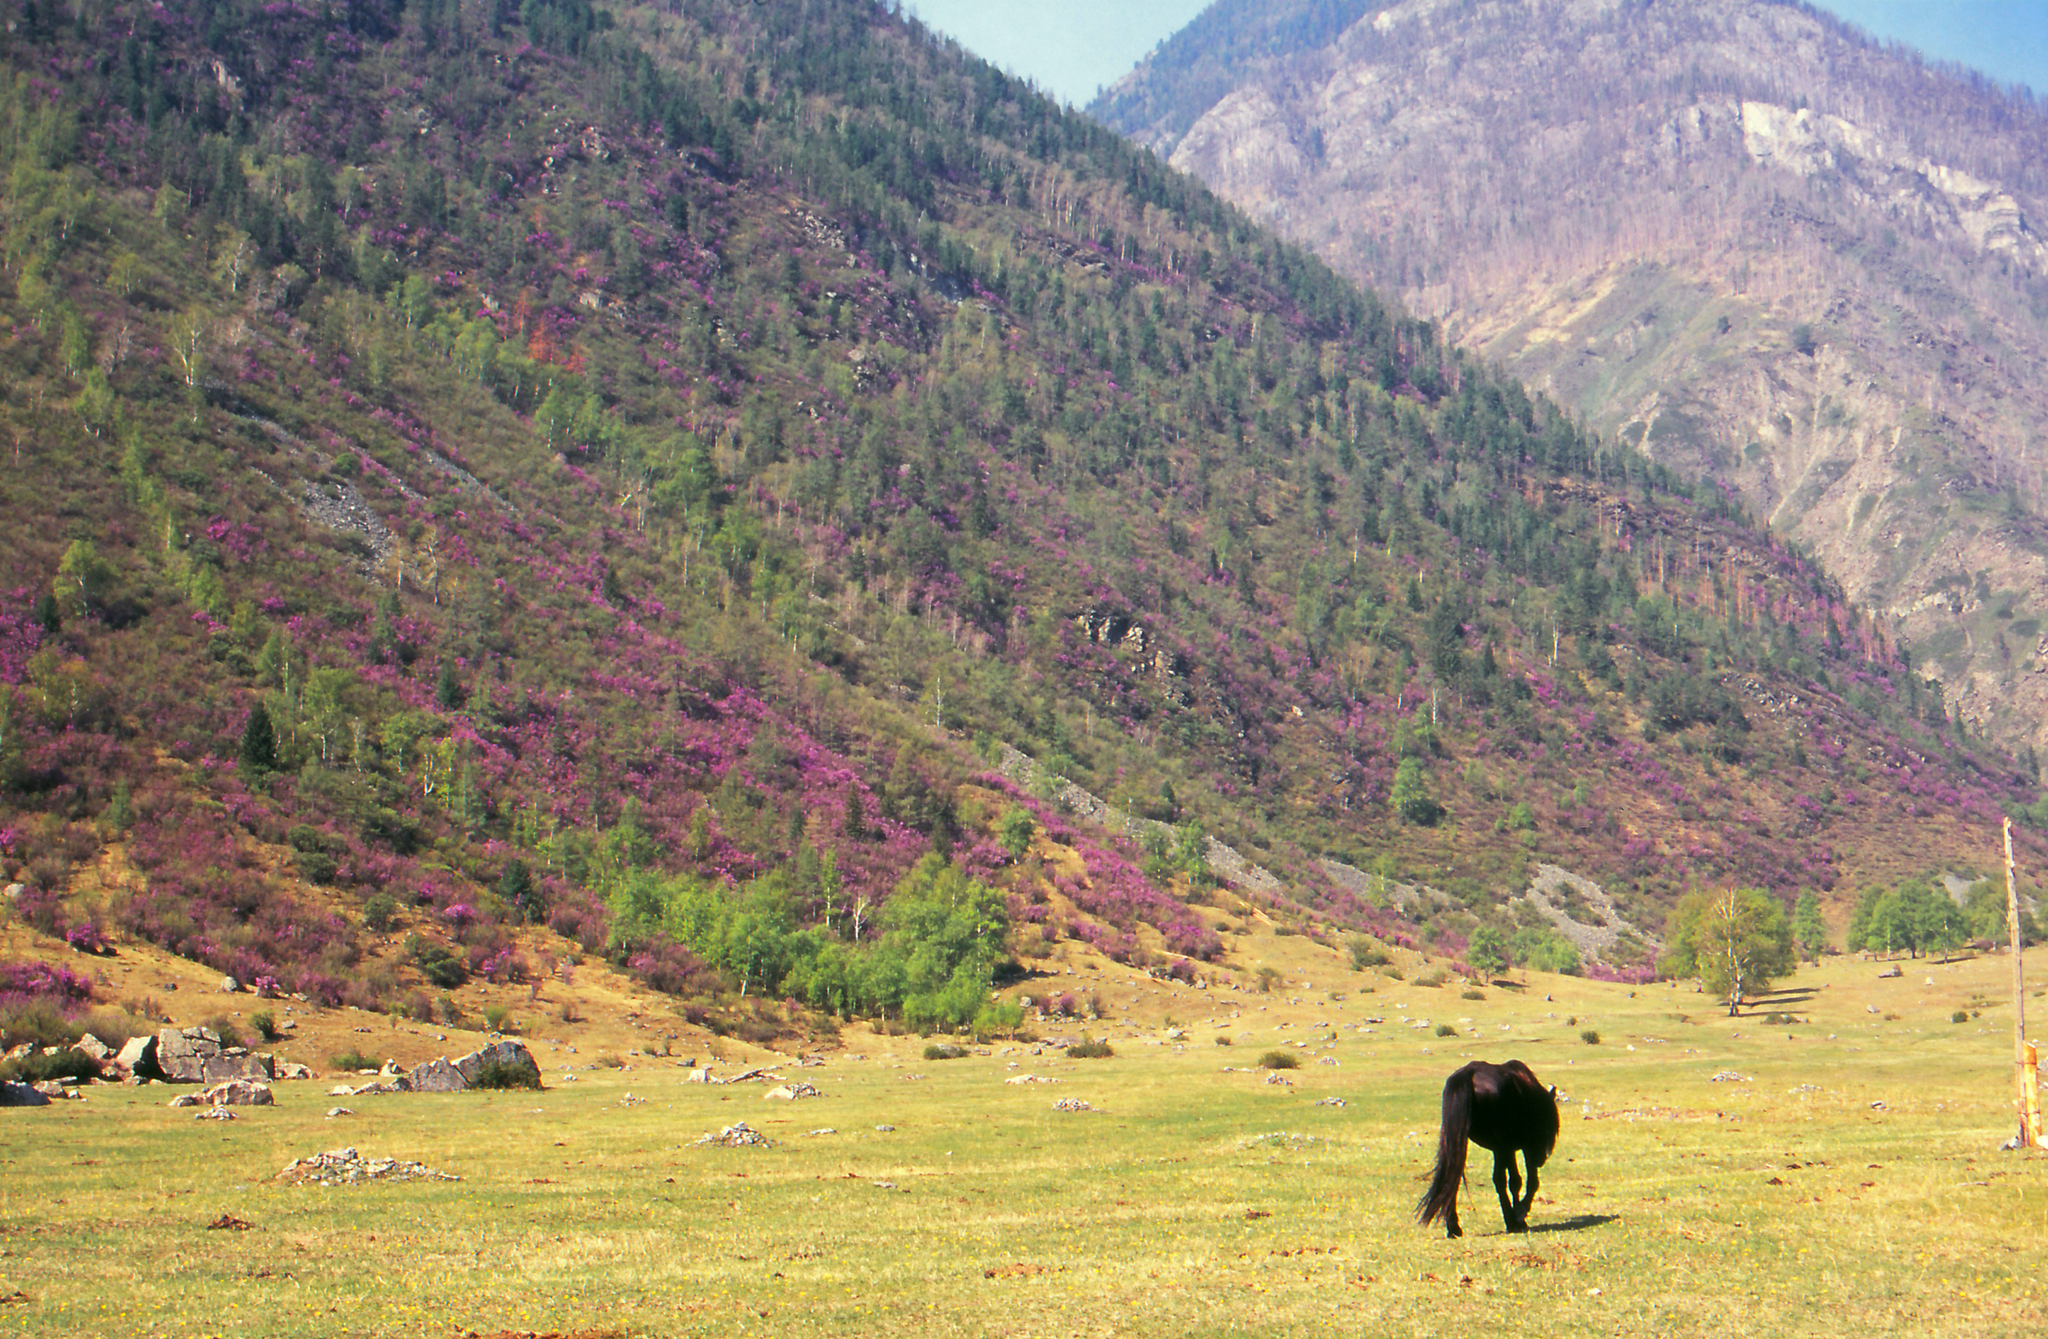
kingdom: Plantae
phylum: Tracheophyta
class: Magnoliopsida
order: Ericales
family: Ericaceae
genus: Rhododendron
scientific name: Rhododendron dauricum
